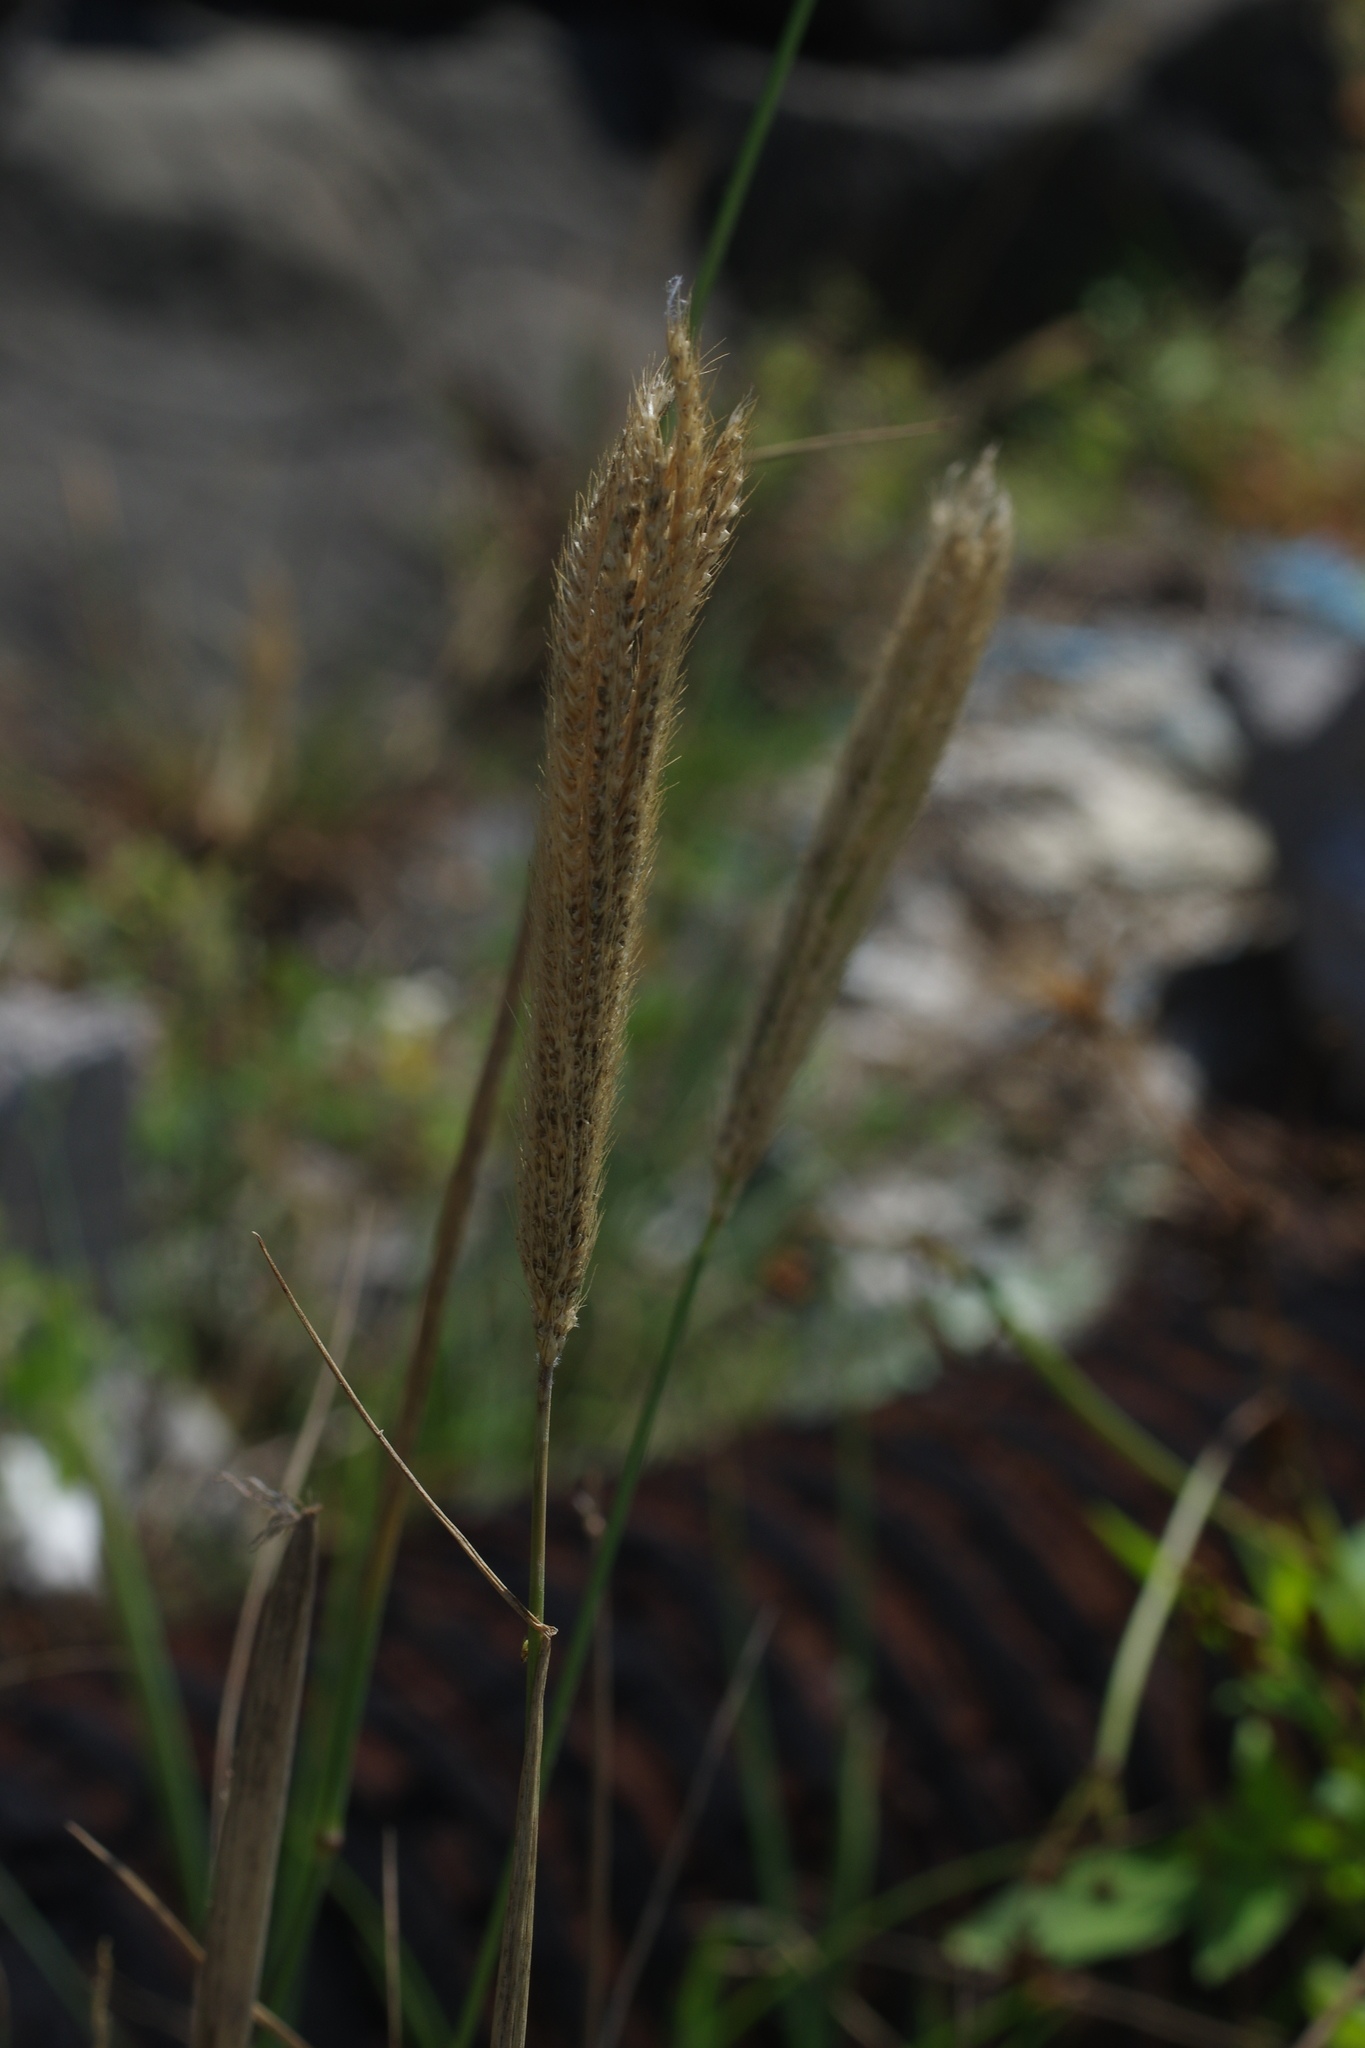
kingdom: Plantae
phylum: Tracheophyta
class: Liliopsida
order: Poales
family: Poaceae
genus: Chloris
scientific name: Chloris formosana
